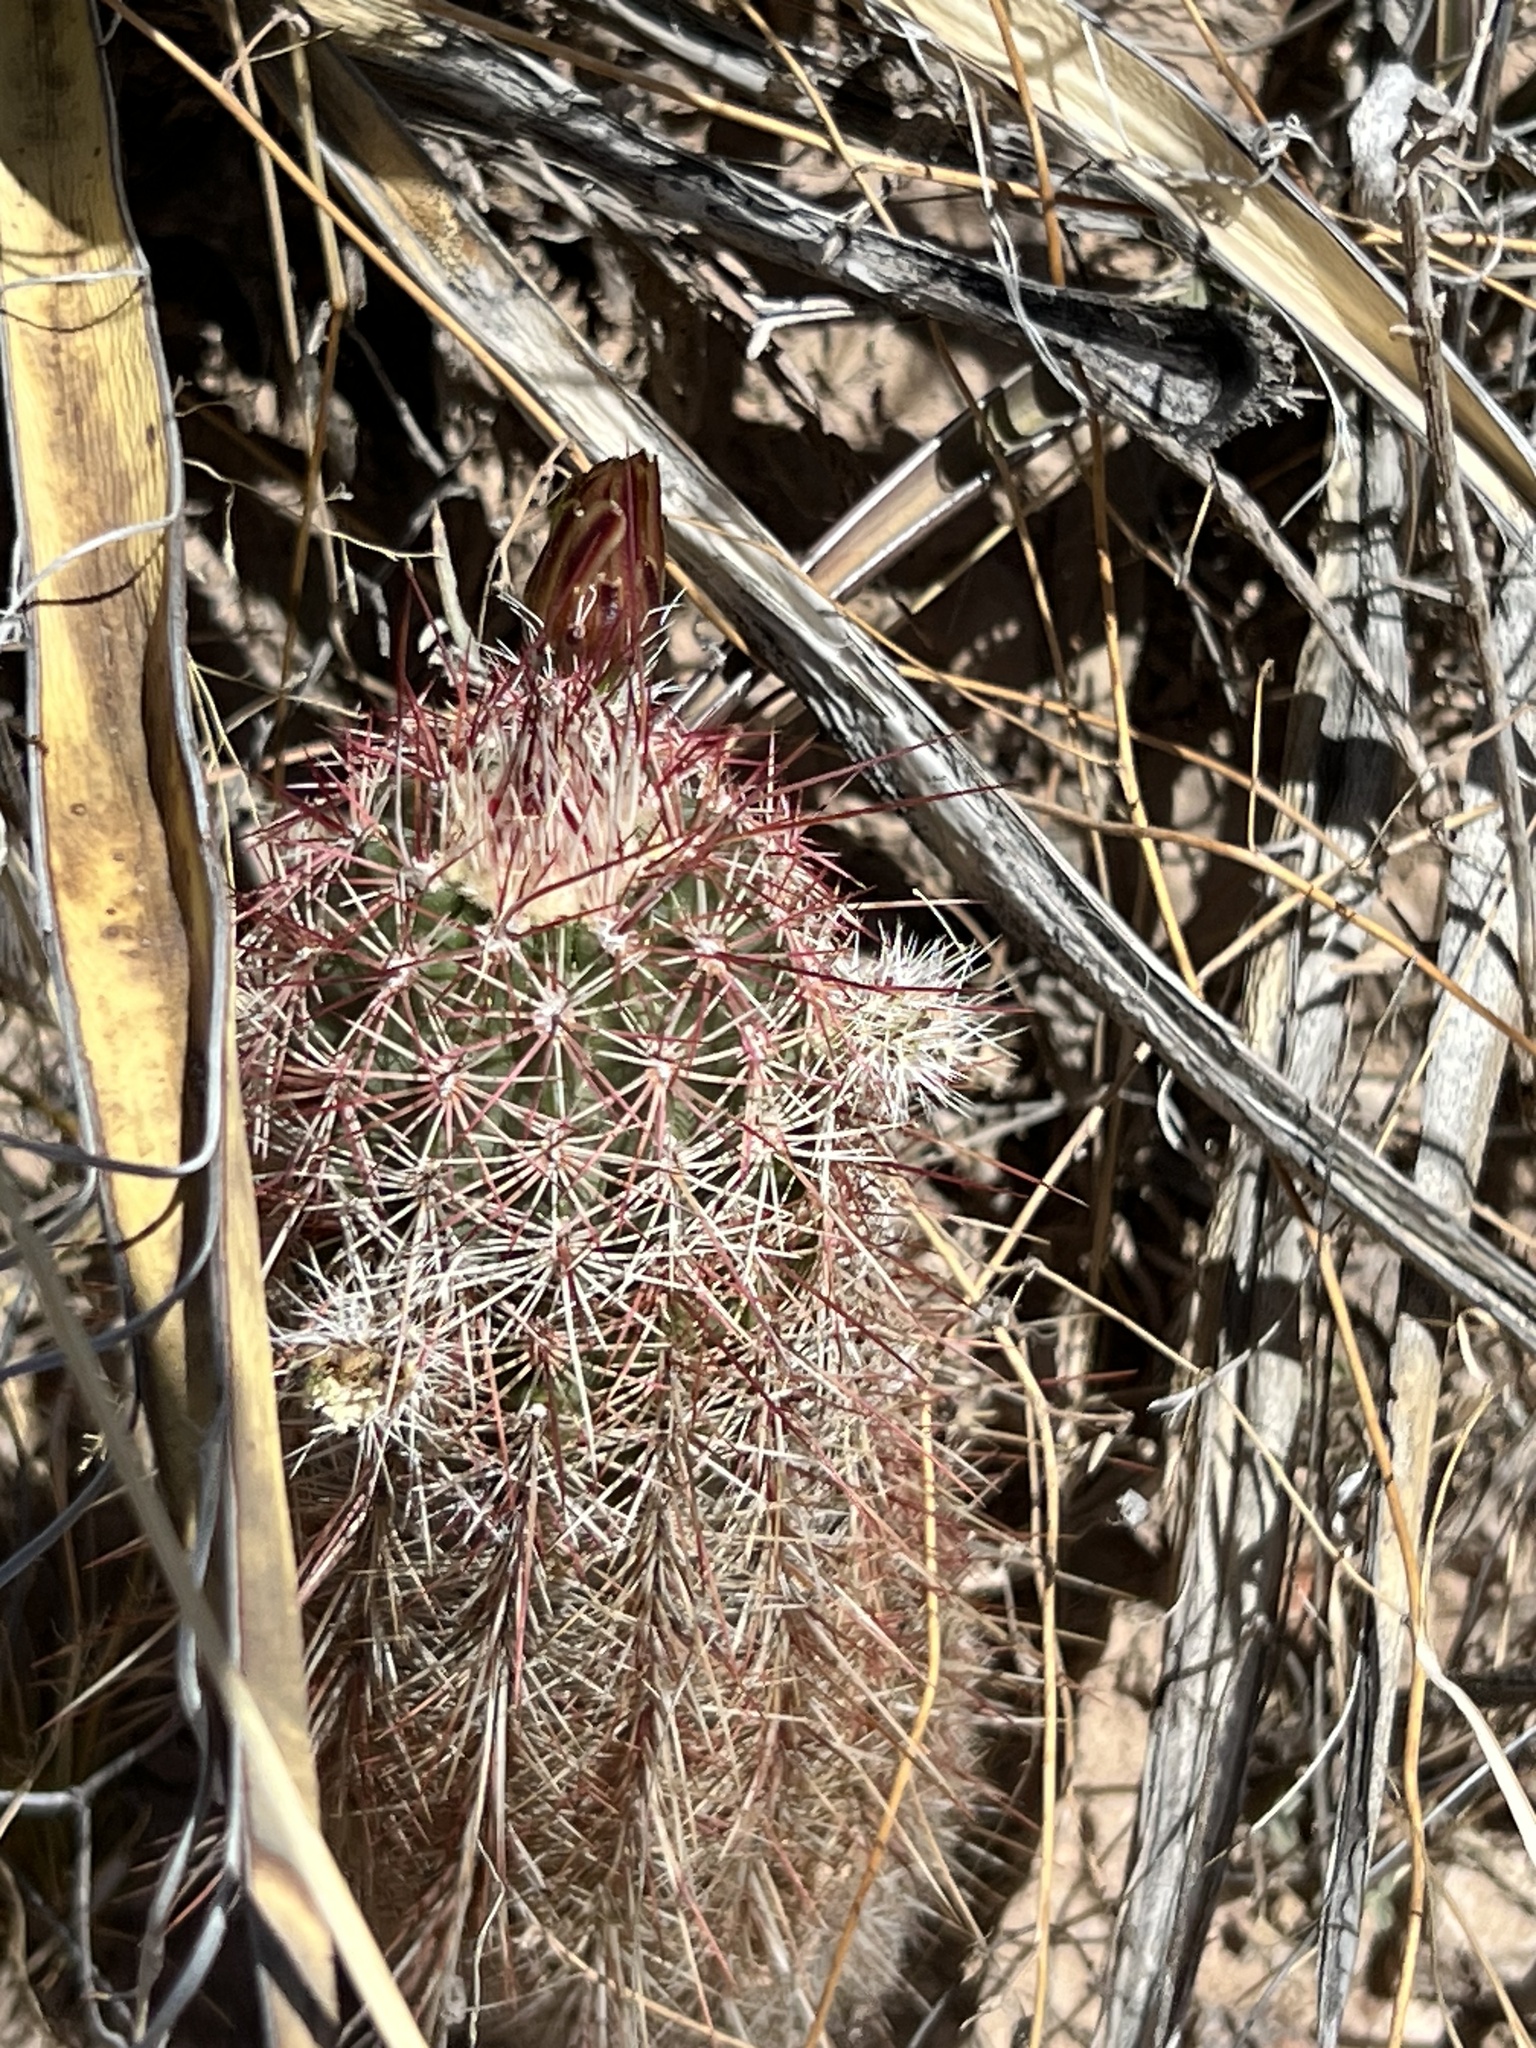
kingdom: Plantae
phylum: Tracheophyta
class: Magnoliopsida
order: Caryophyllales
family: Cactaceae
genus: Echinocereus
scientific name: Echinocereus viridiflorus
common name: Nylon hedgehog cactus
